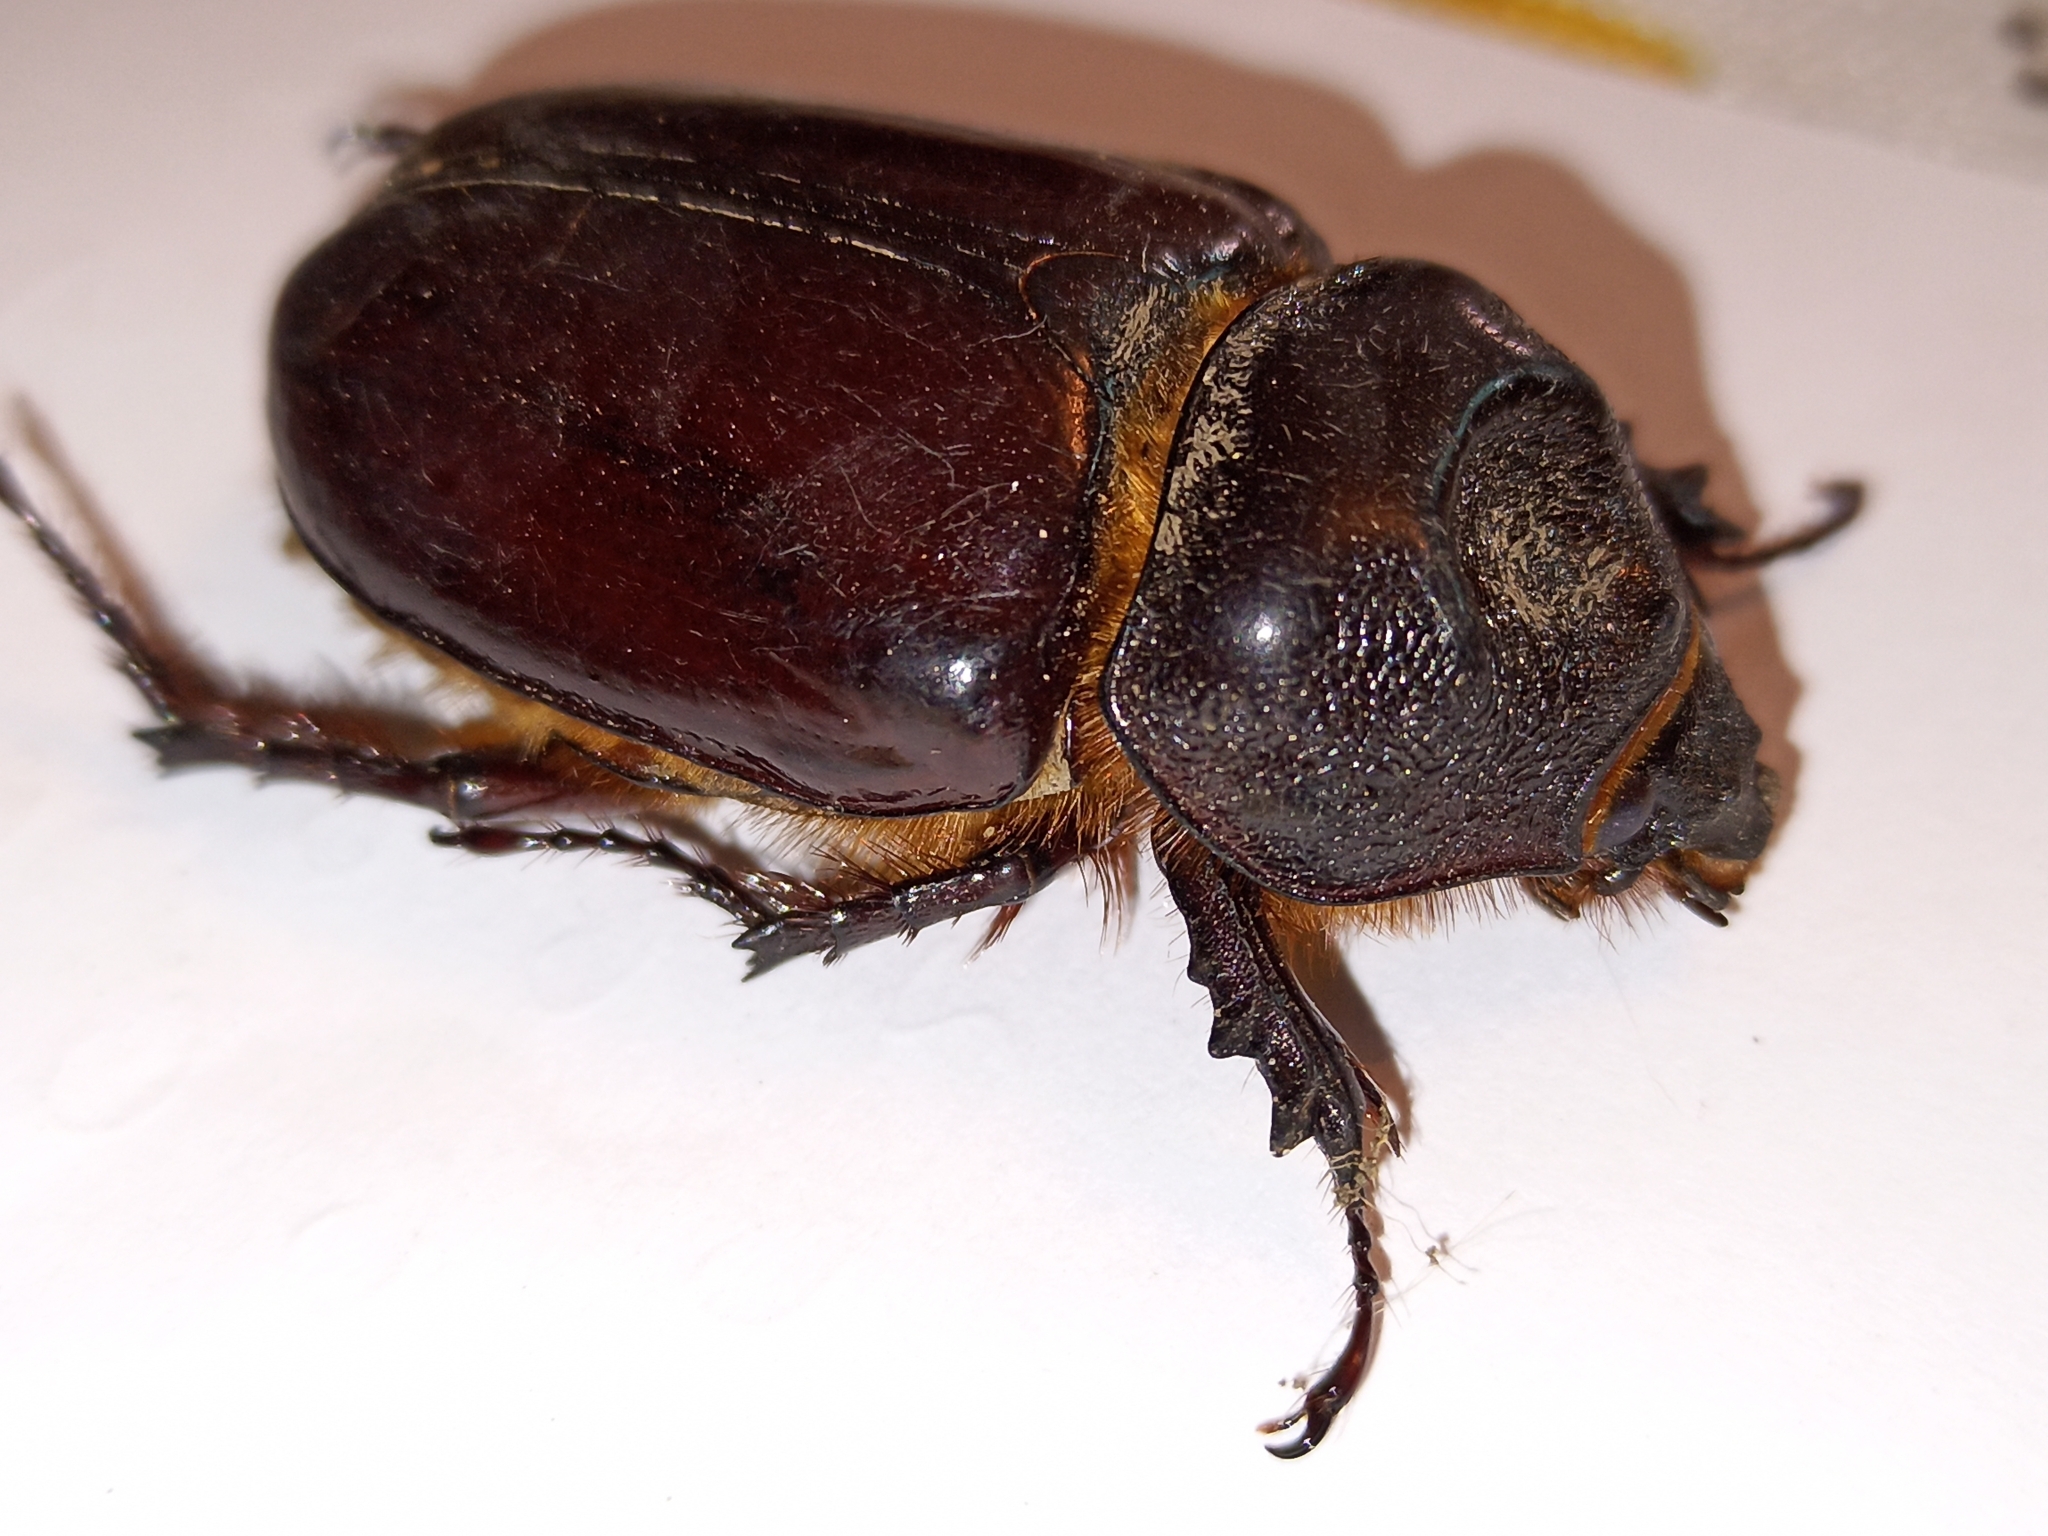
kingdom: Animalia
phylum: Arthropoda
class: Insecta
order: Coleoptera
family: Scarabaeidae
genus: Strategus
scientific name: Strategus aloeus
